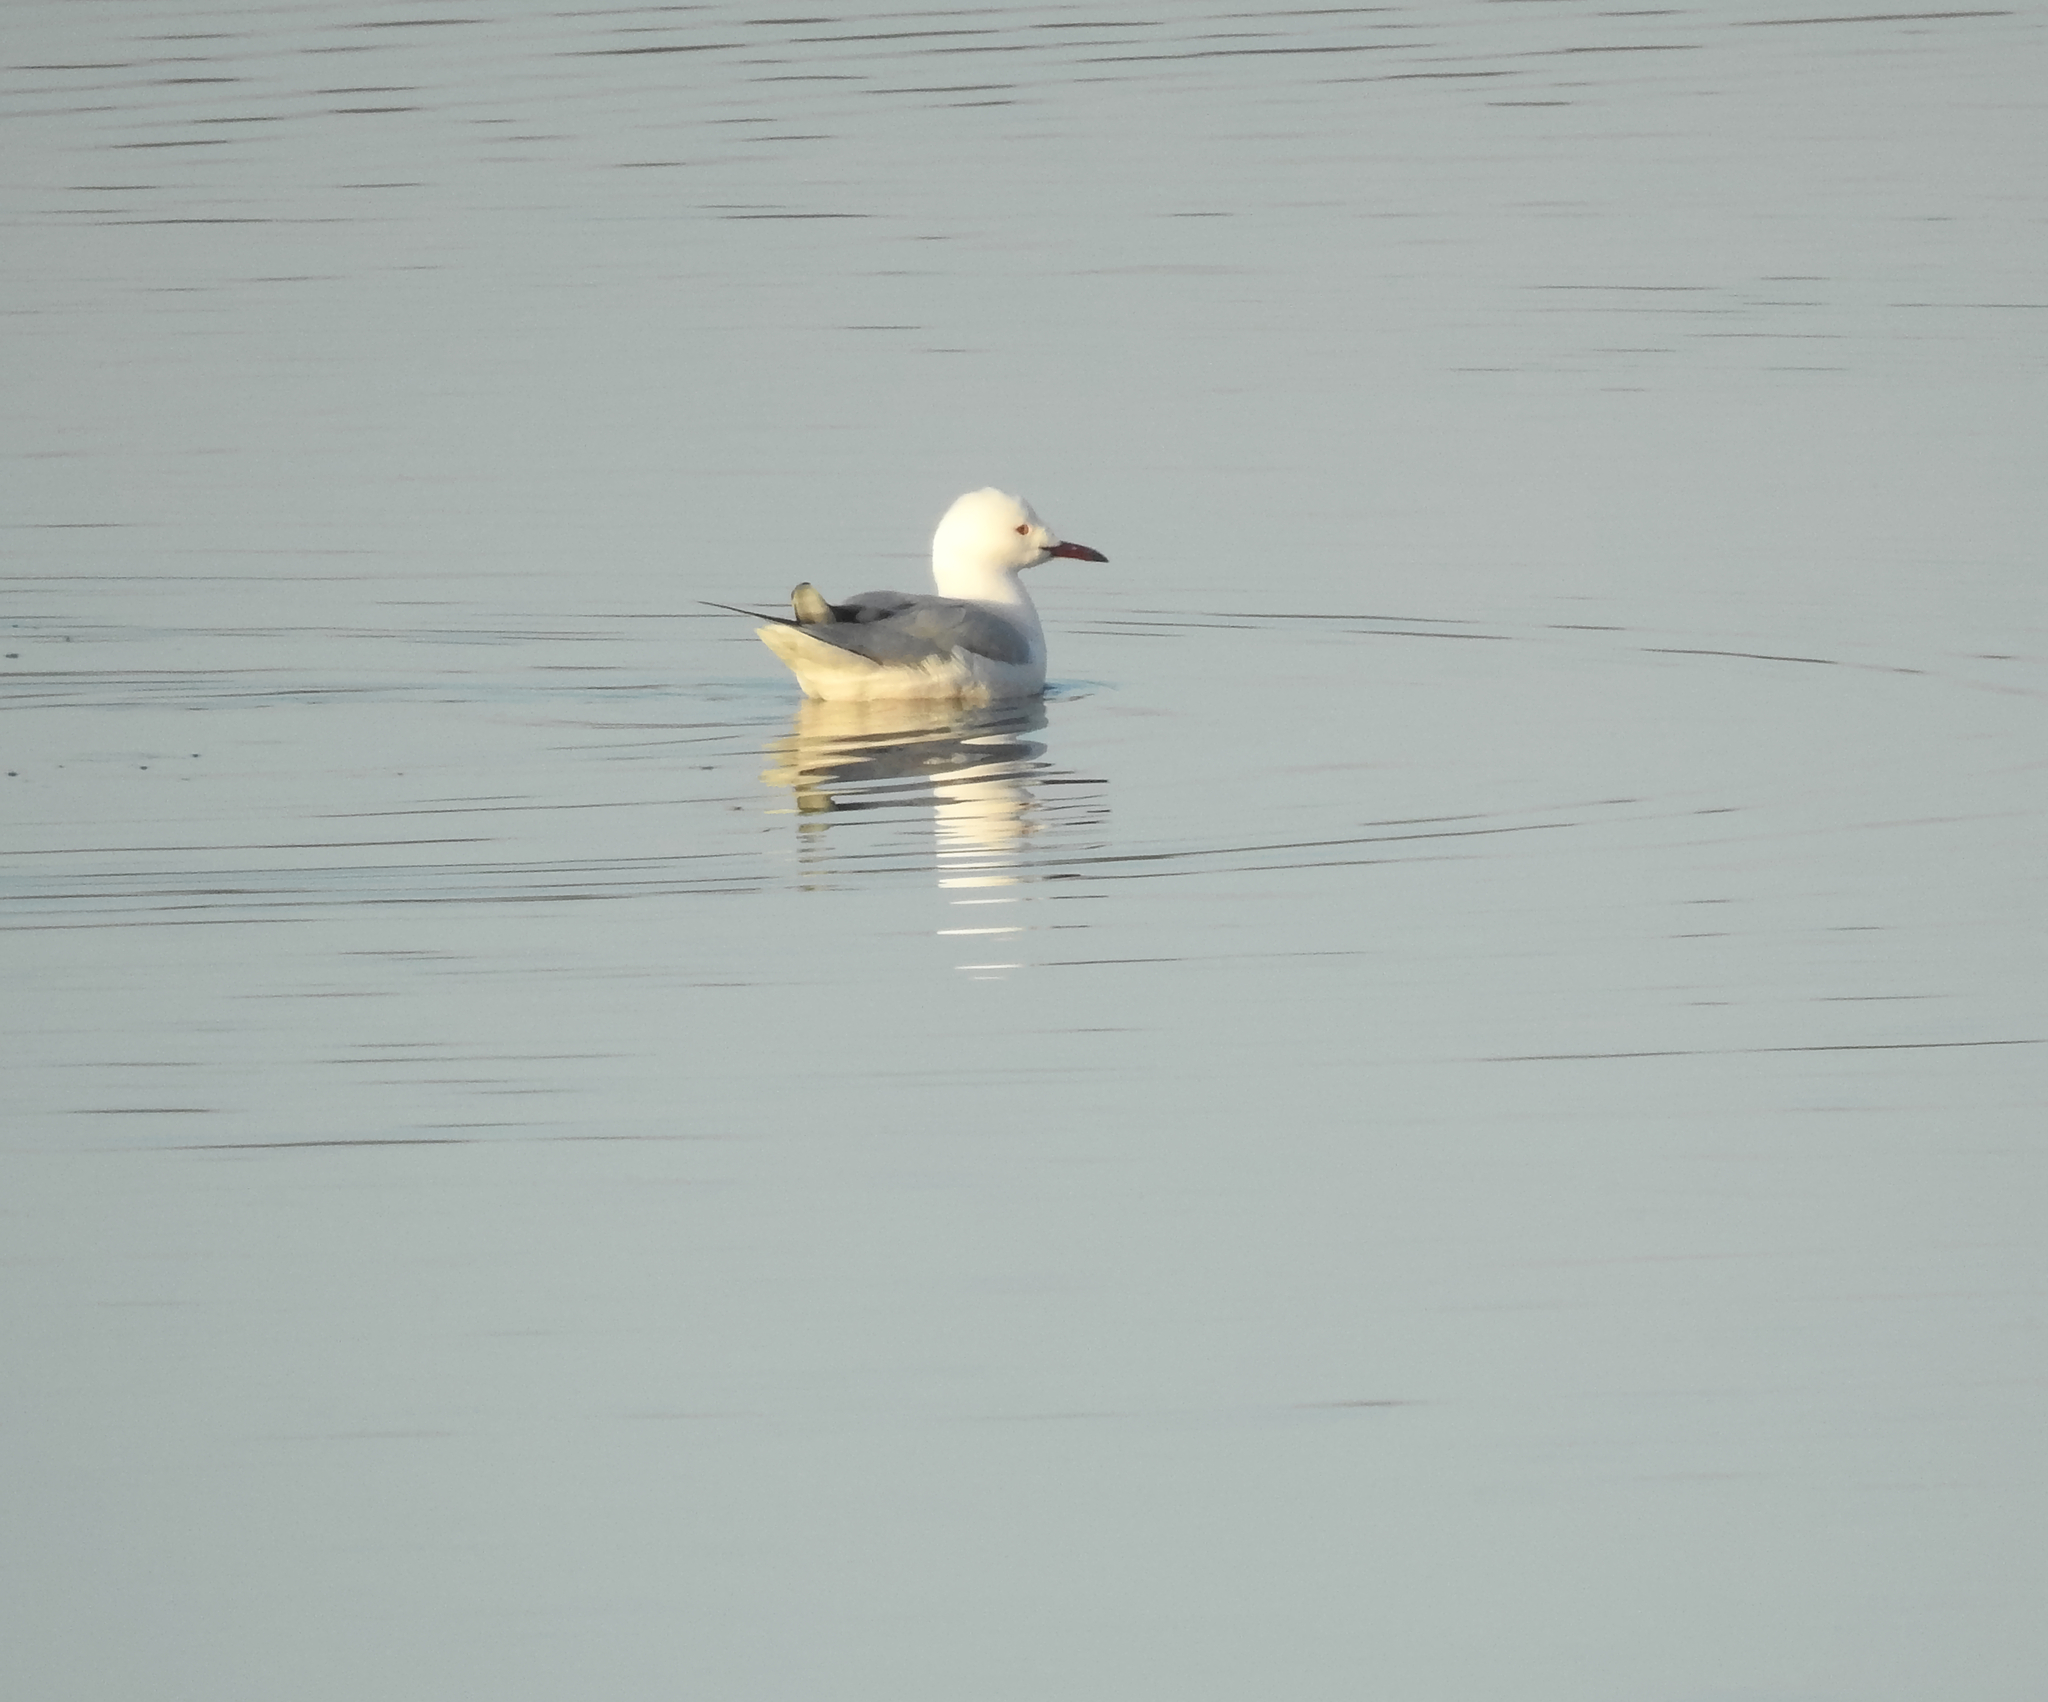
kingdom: Animalia
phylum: Chordata
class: Aves
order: Charadriiformes
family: Laridae
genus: Chroicocephalus
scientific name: Chroicocephalus genei
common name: Slender-billed gull
